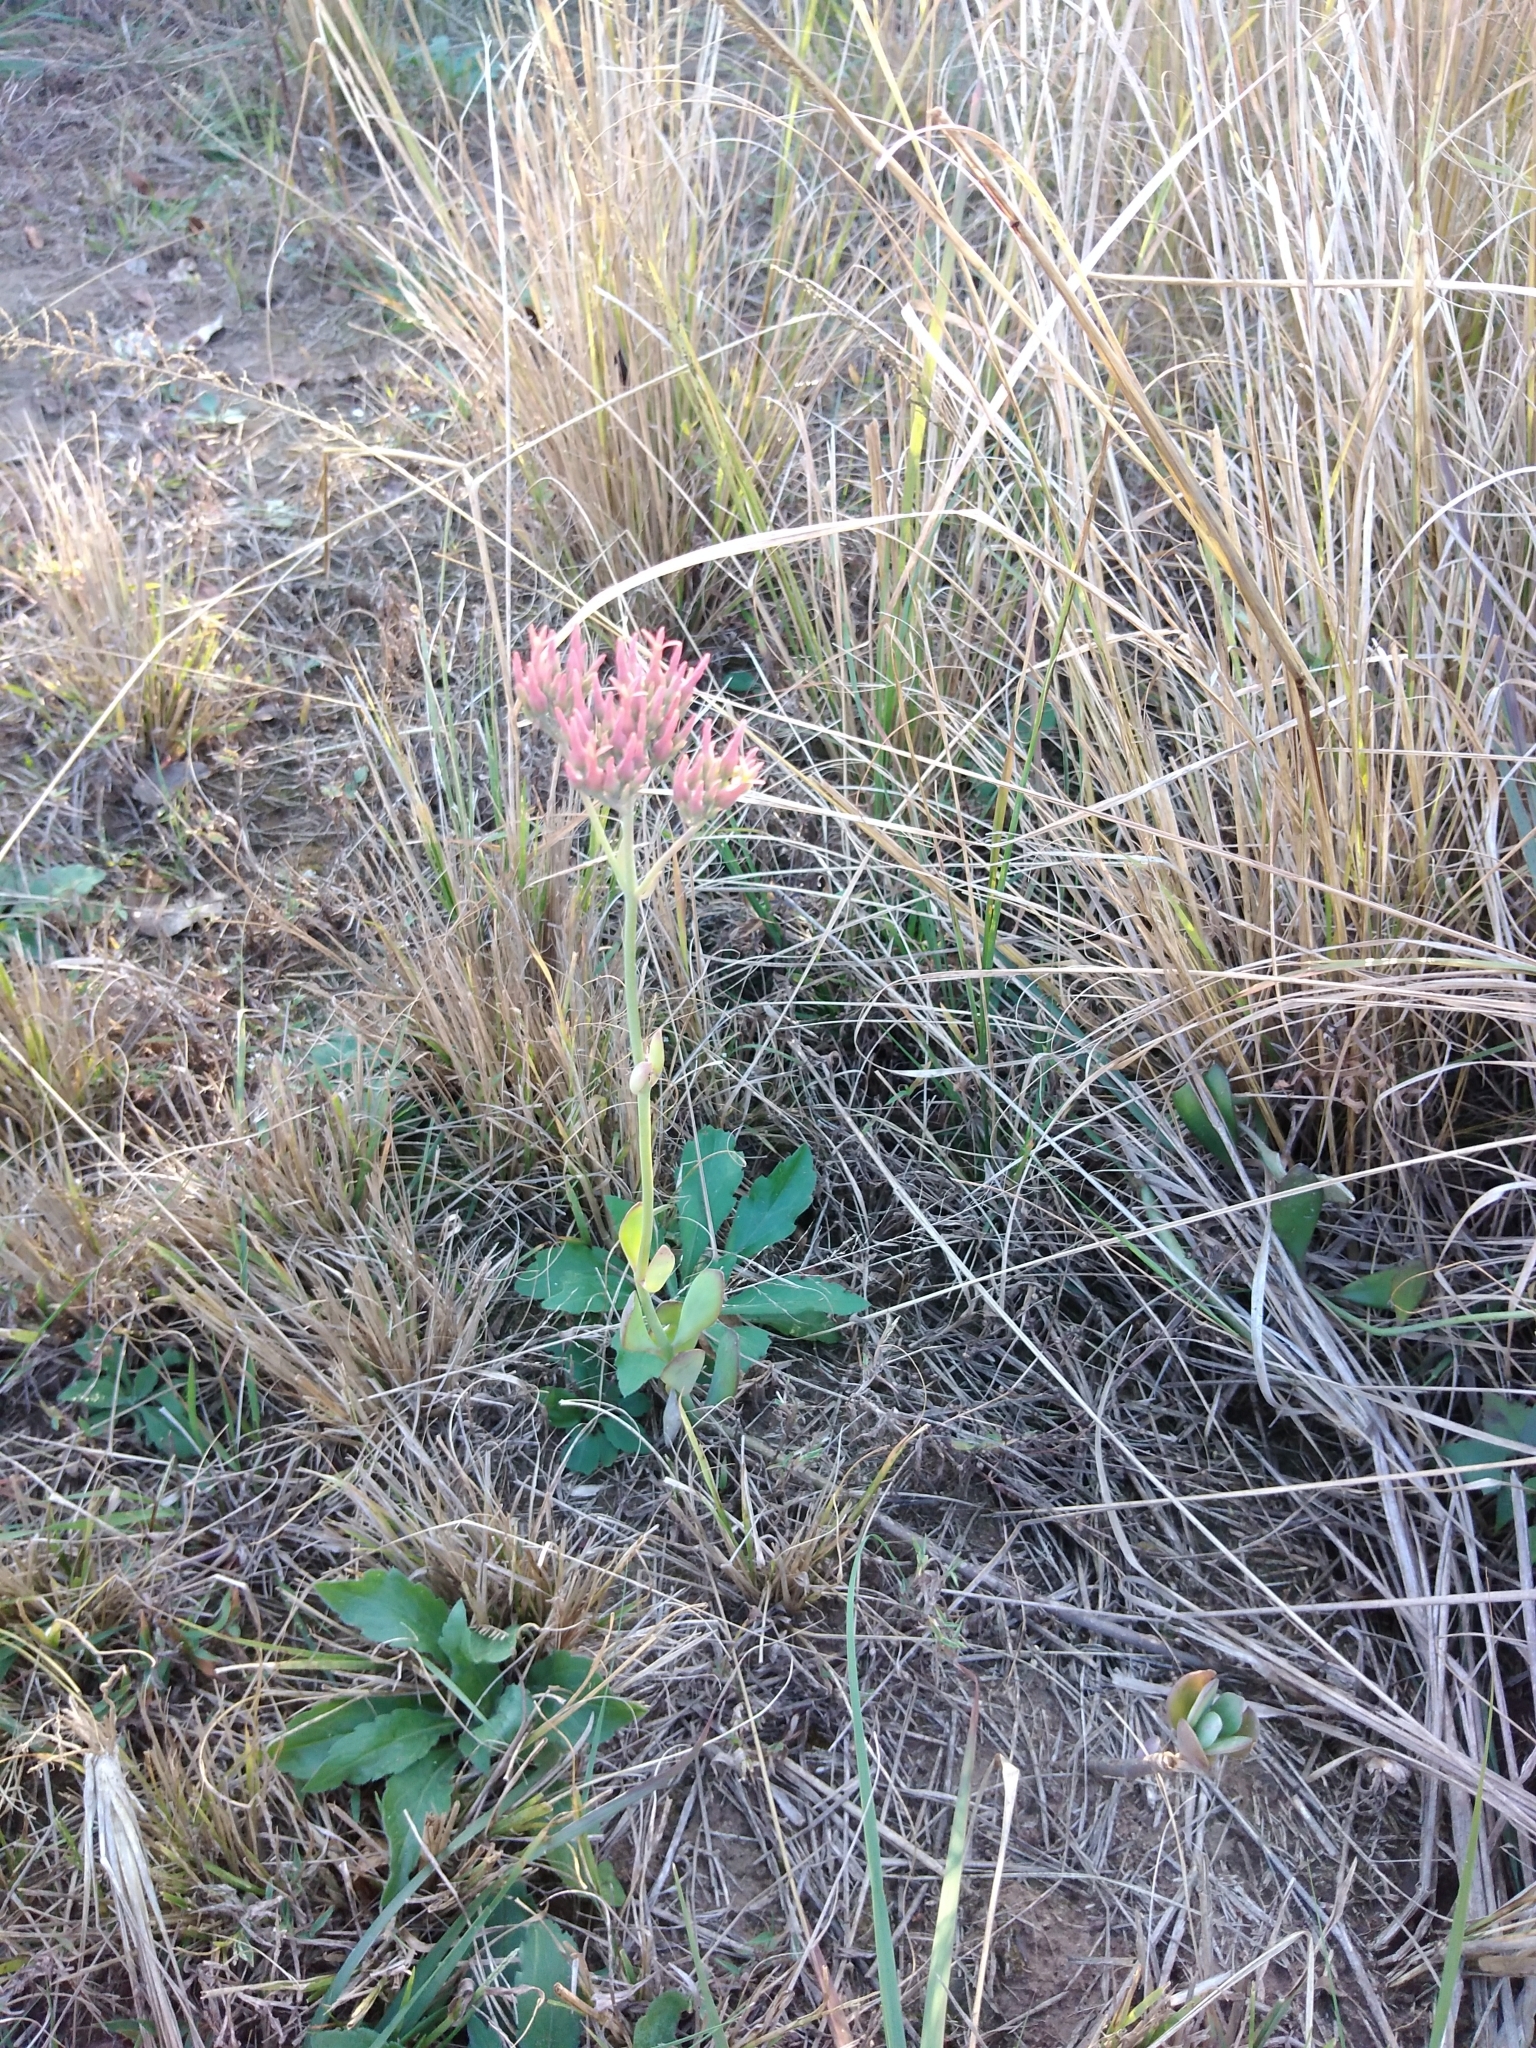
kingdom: Plantae
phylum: Tracheophyta
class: Magnoliopsida
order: Saxifragales
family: Crassulaceae
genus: Kalanchoe
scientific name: Kalanchoe rotundifolia
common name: Common kalanchoe
